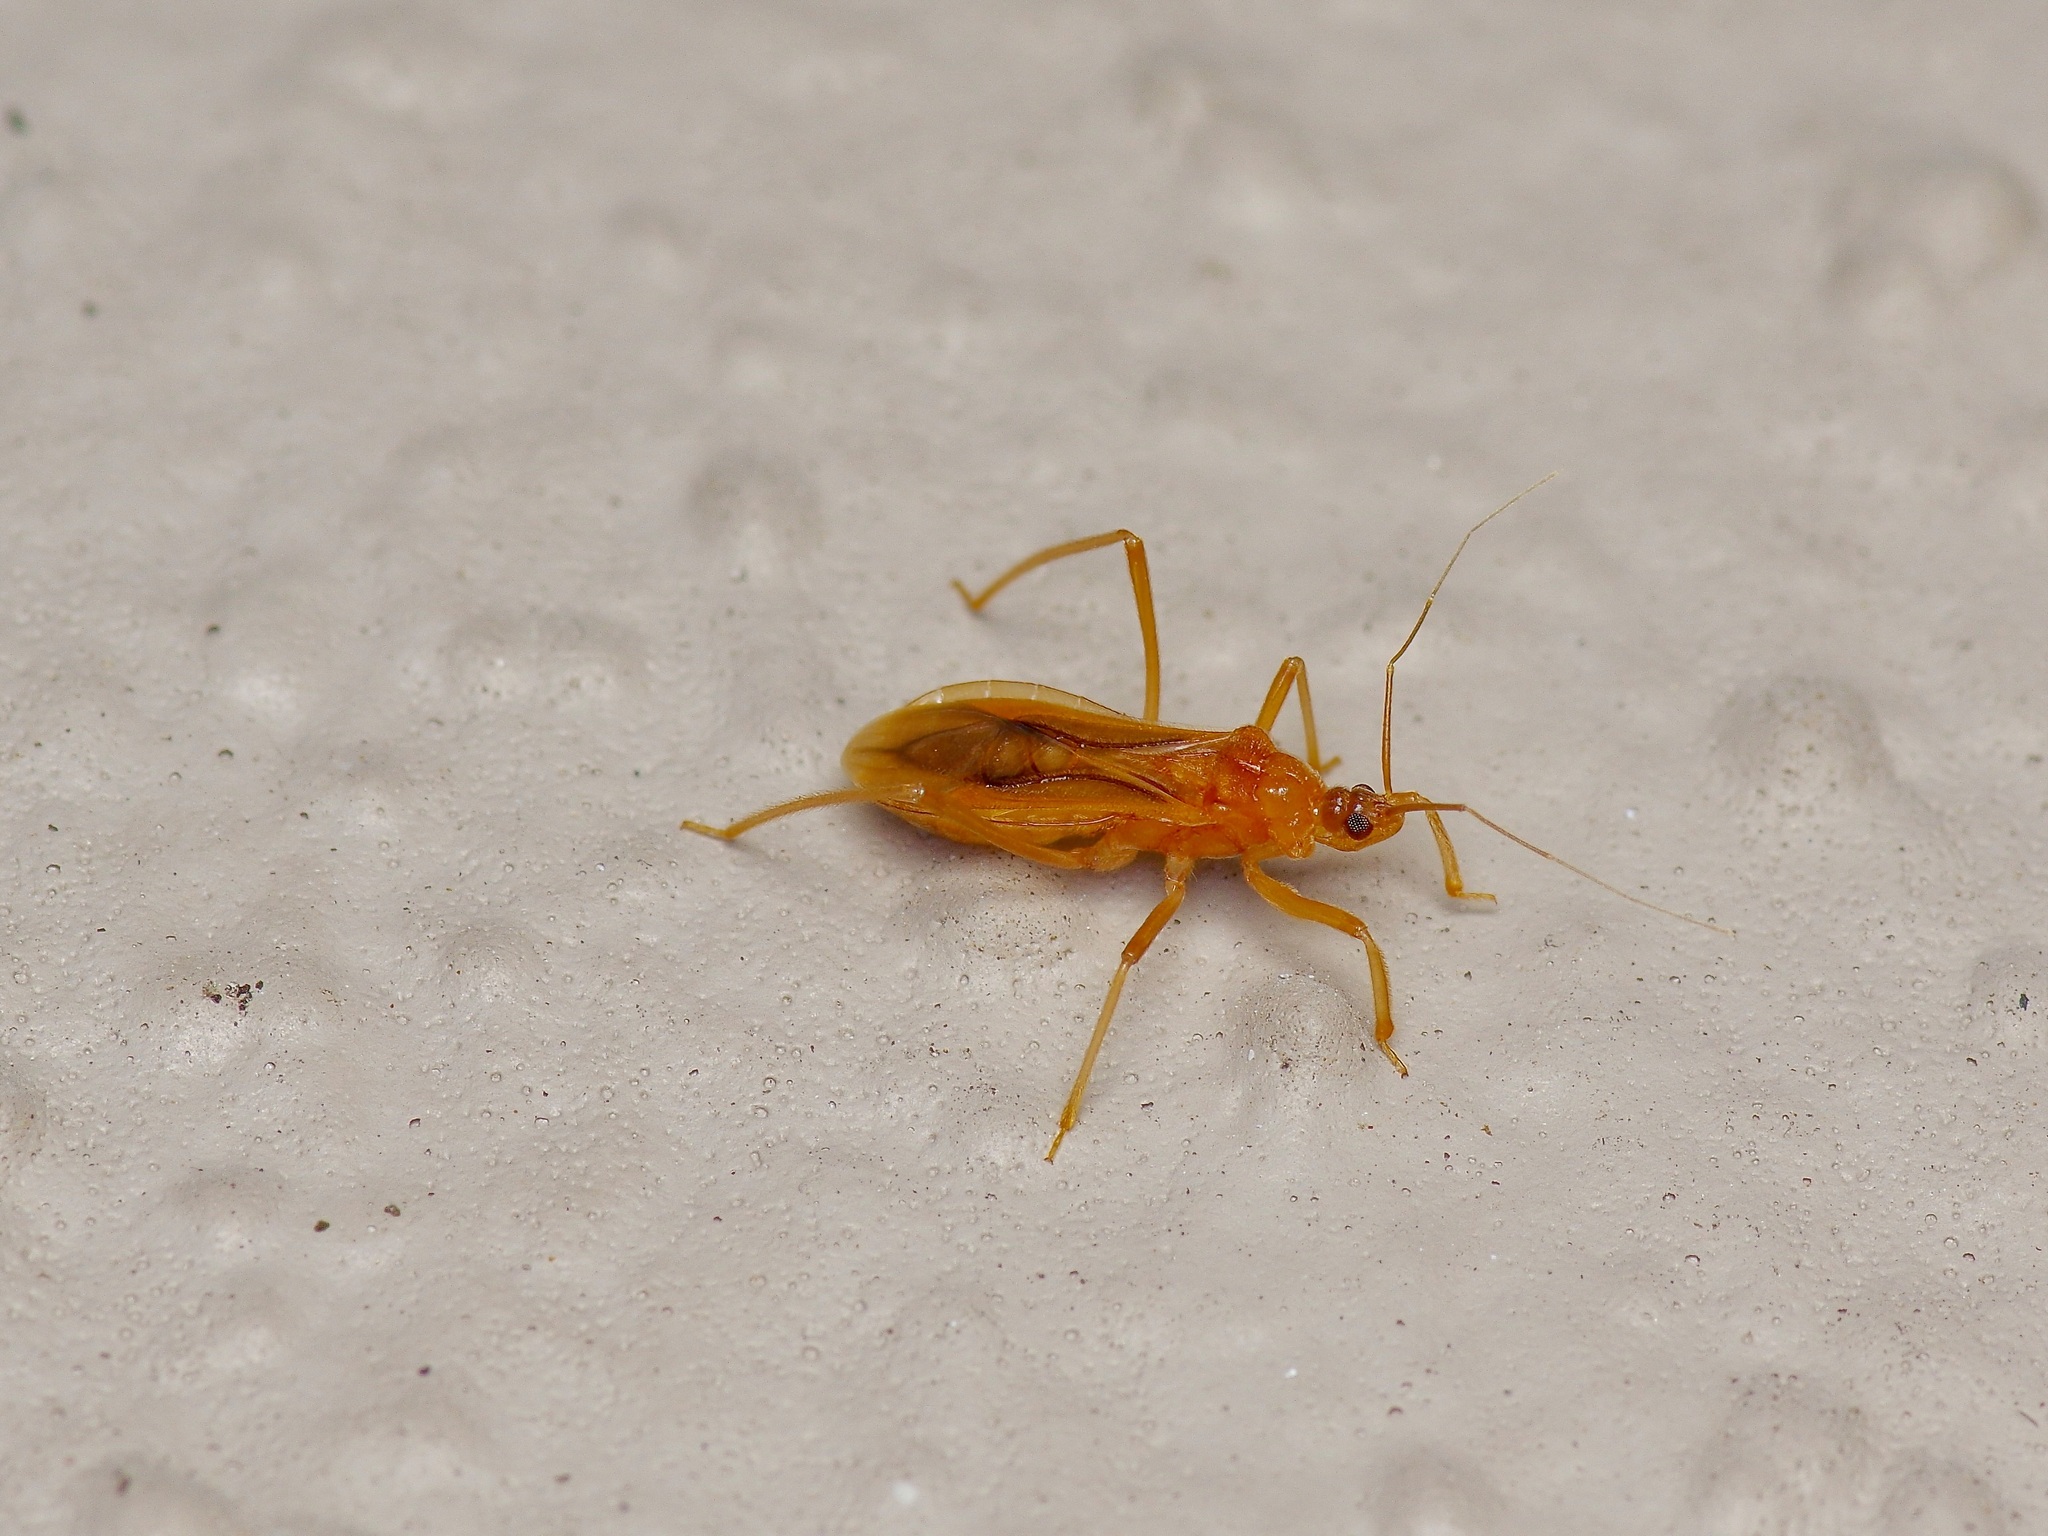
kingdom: Animalia
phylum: Arthropoda
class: Insecta
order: Hemiptera
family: Reduviidae
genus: Oncerotrachelus
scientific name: Oncerotrachelus pallidus
